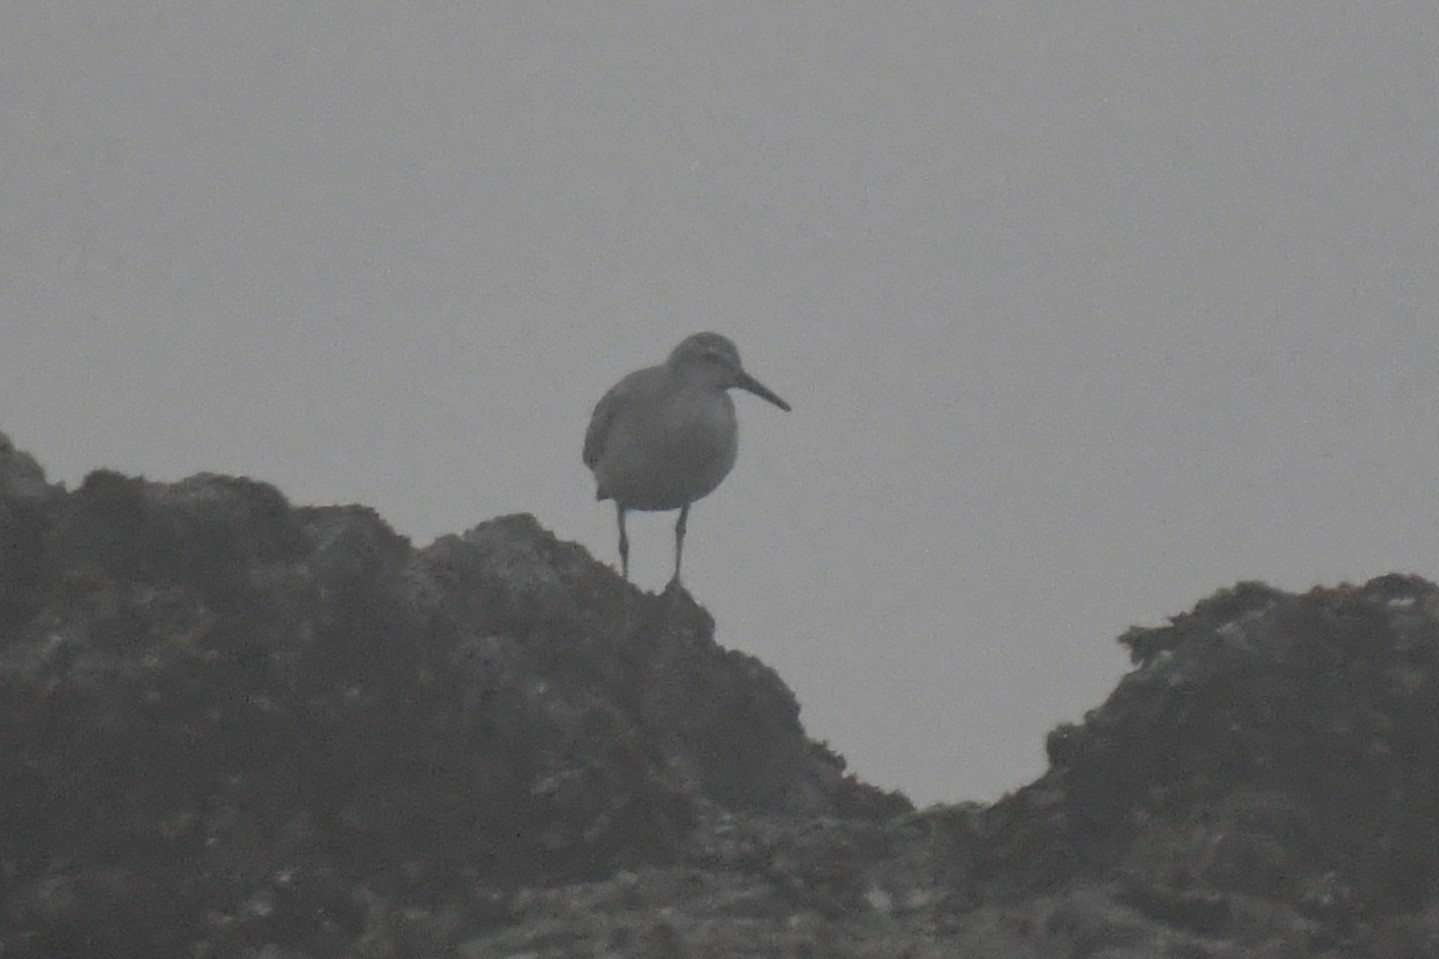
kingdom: Animalia
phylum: Chordata
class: Aves
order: Charadriiformes
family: Scolopacidae
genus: Calidris
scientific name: Calidris canutus
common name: Red knot
